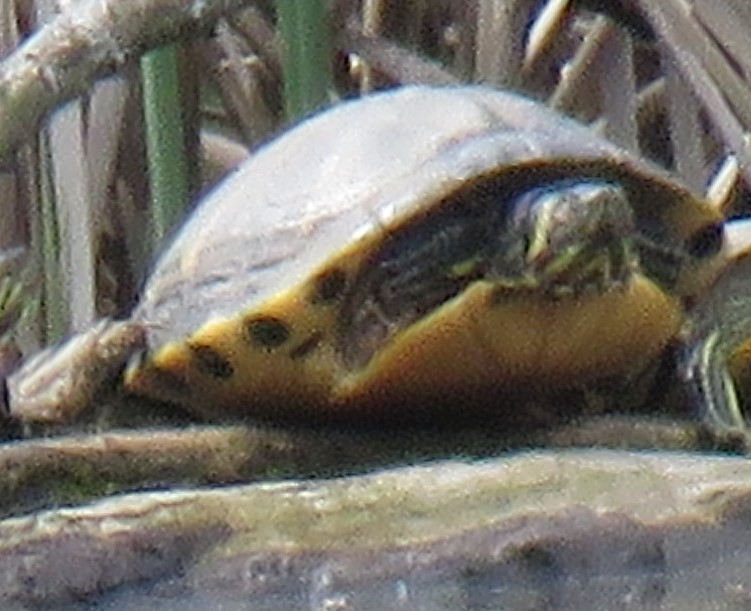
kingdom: Animalia
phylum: Chordata
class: Testudines
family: Emydidae
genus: Trachemys
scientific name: Trachemys scripta
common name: Slider
